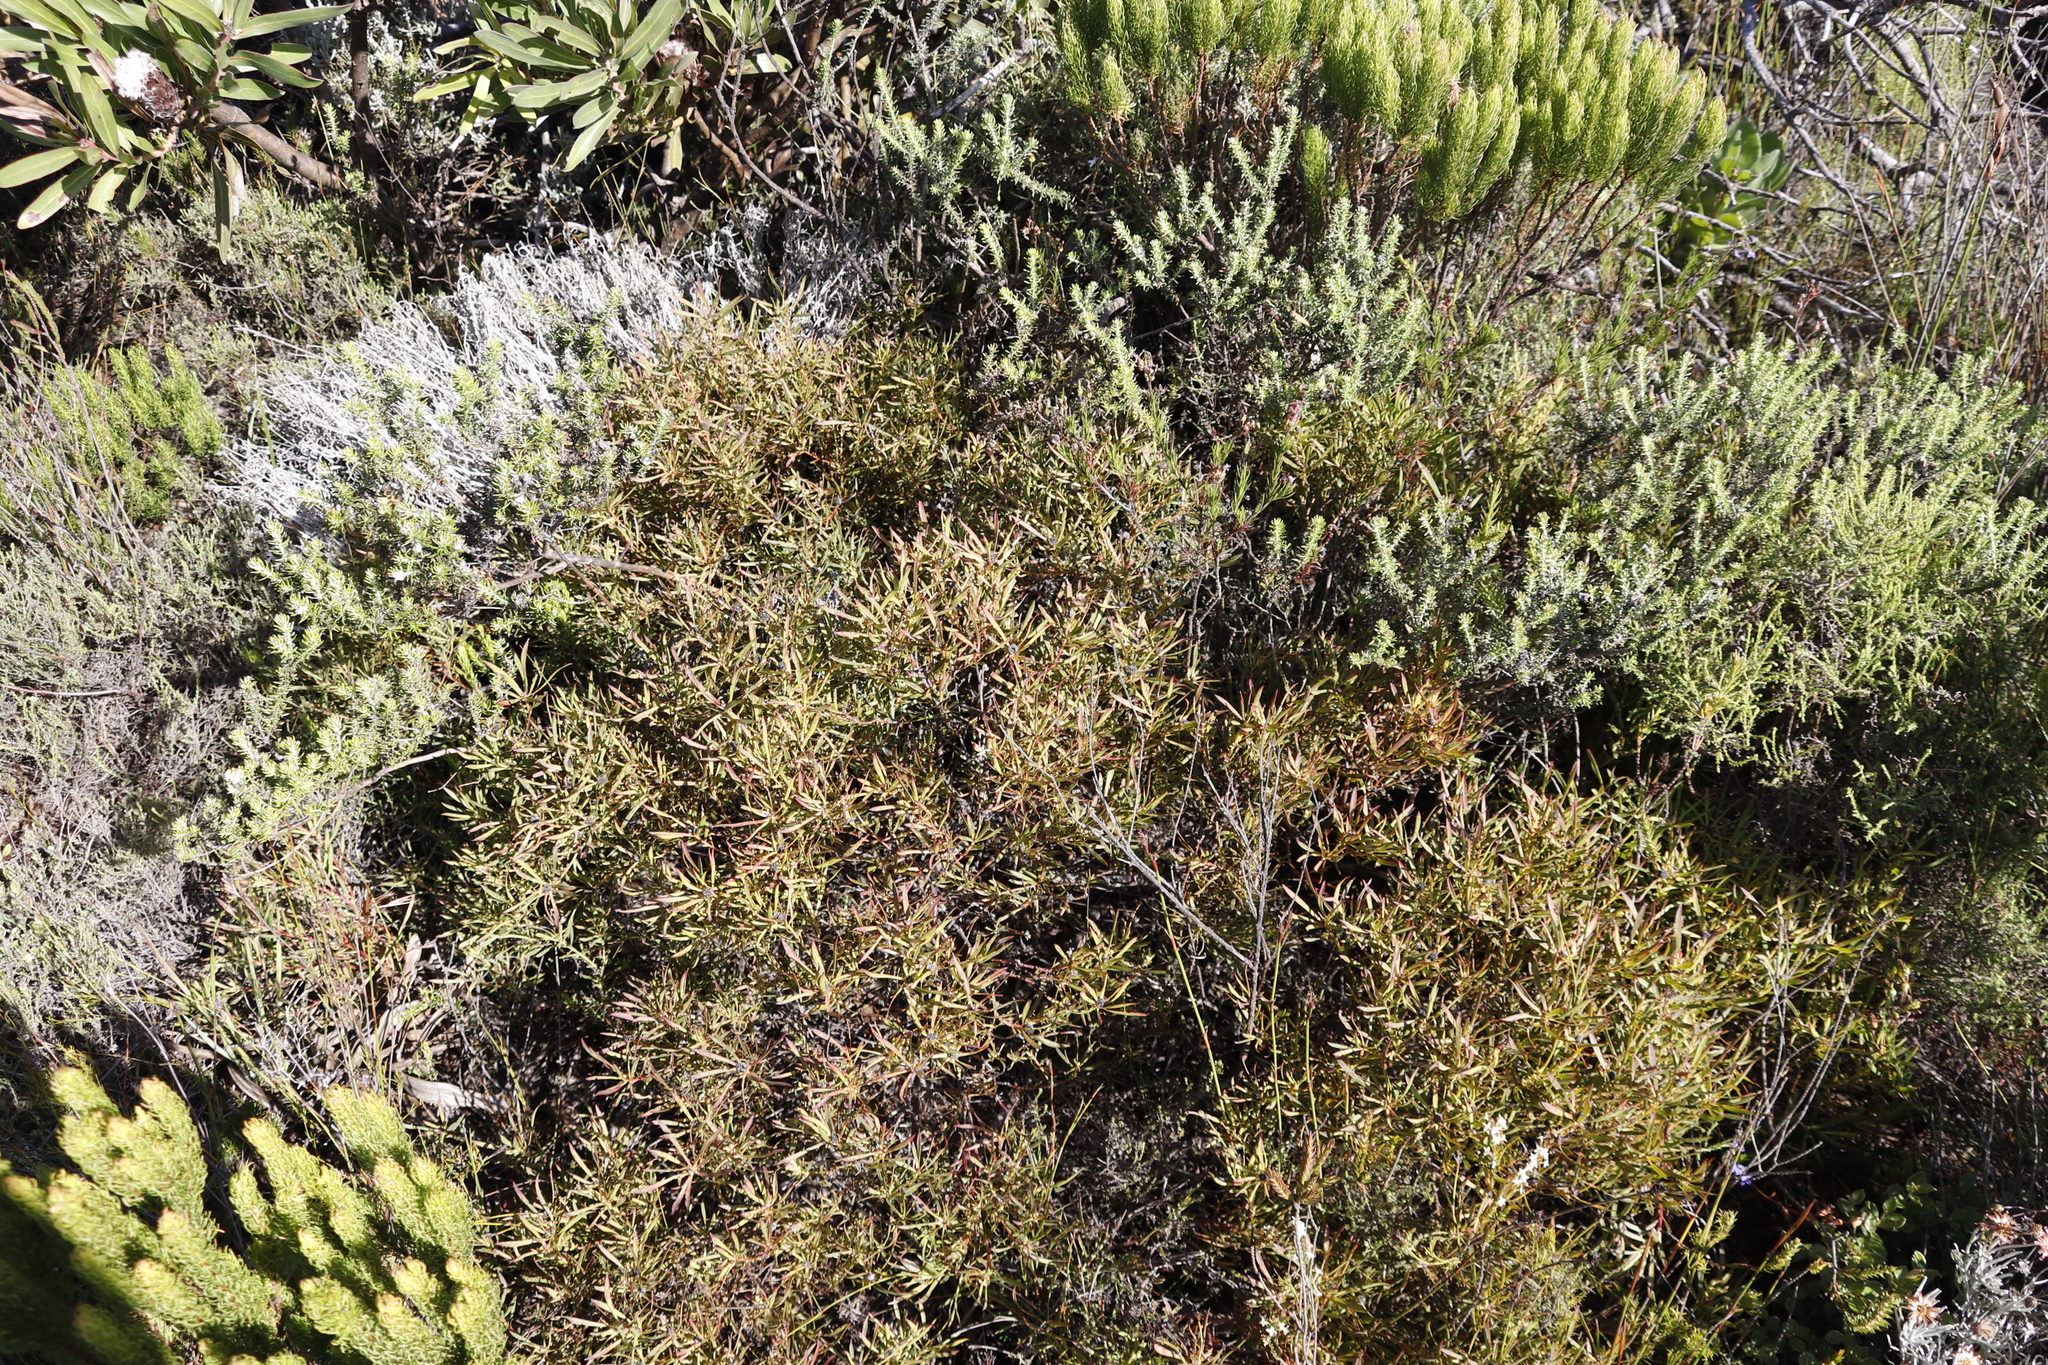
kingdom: Plantae
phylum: Tracheophyta
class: Magnoliopsida
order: Proteales
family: Proteaceae
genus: Leucadendron
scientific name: Leucadendron salignum
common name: Common sunshine conebush
